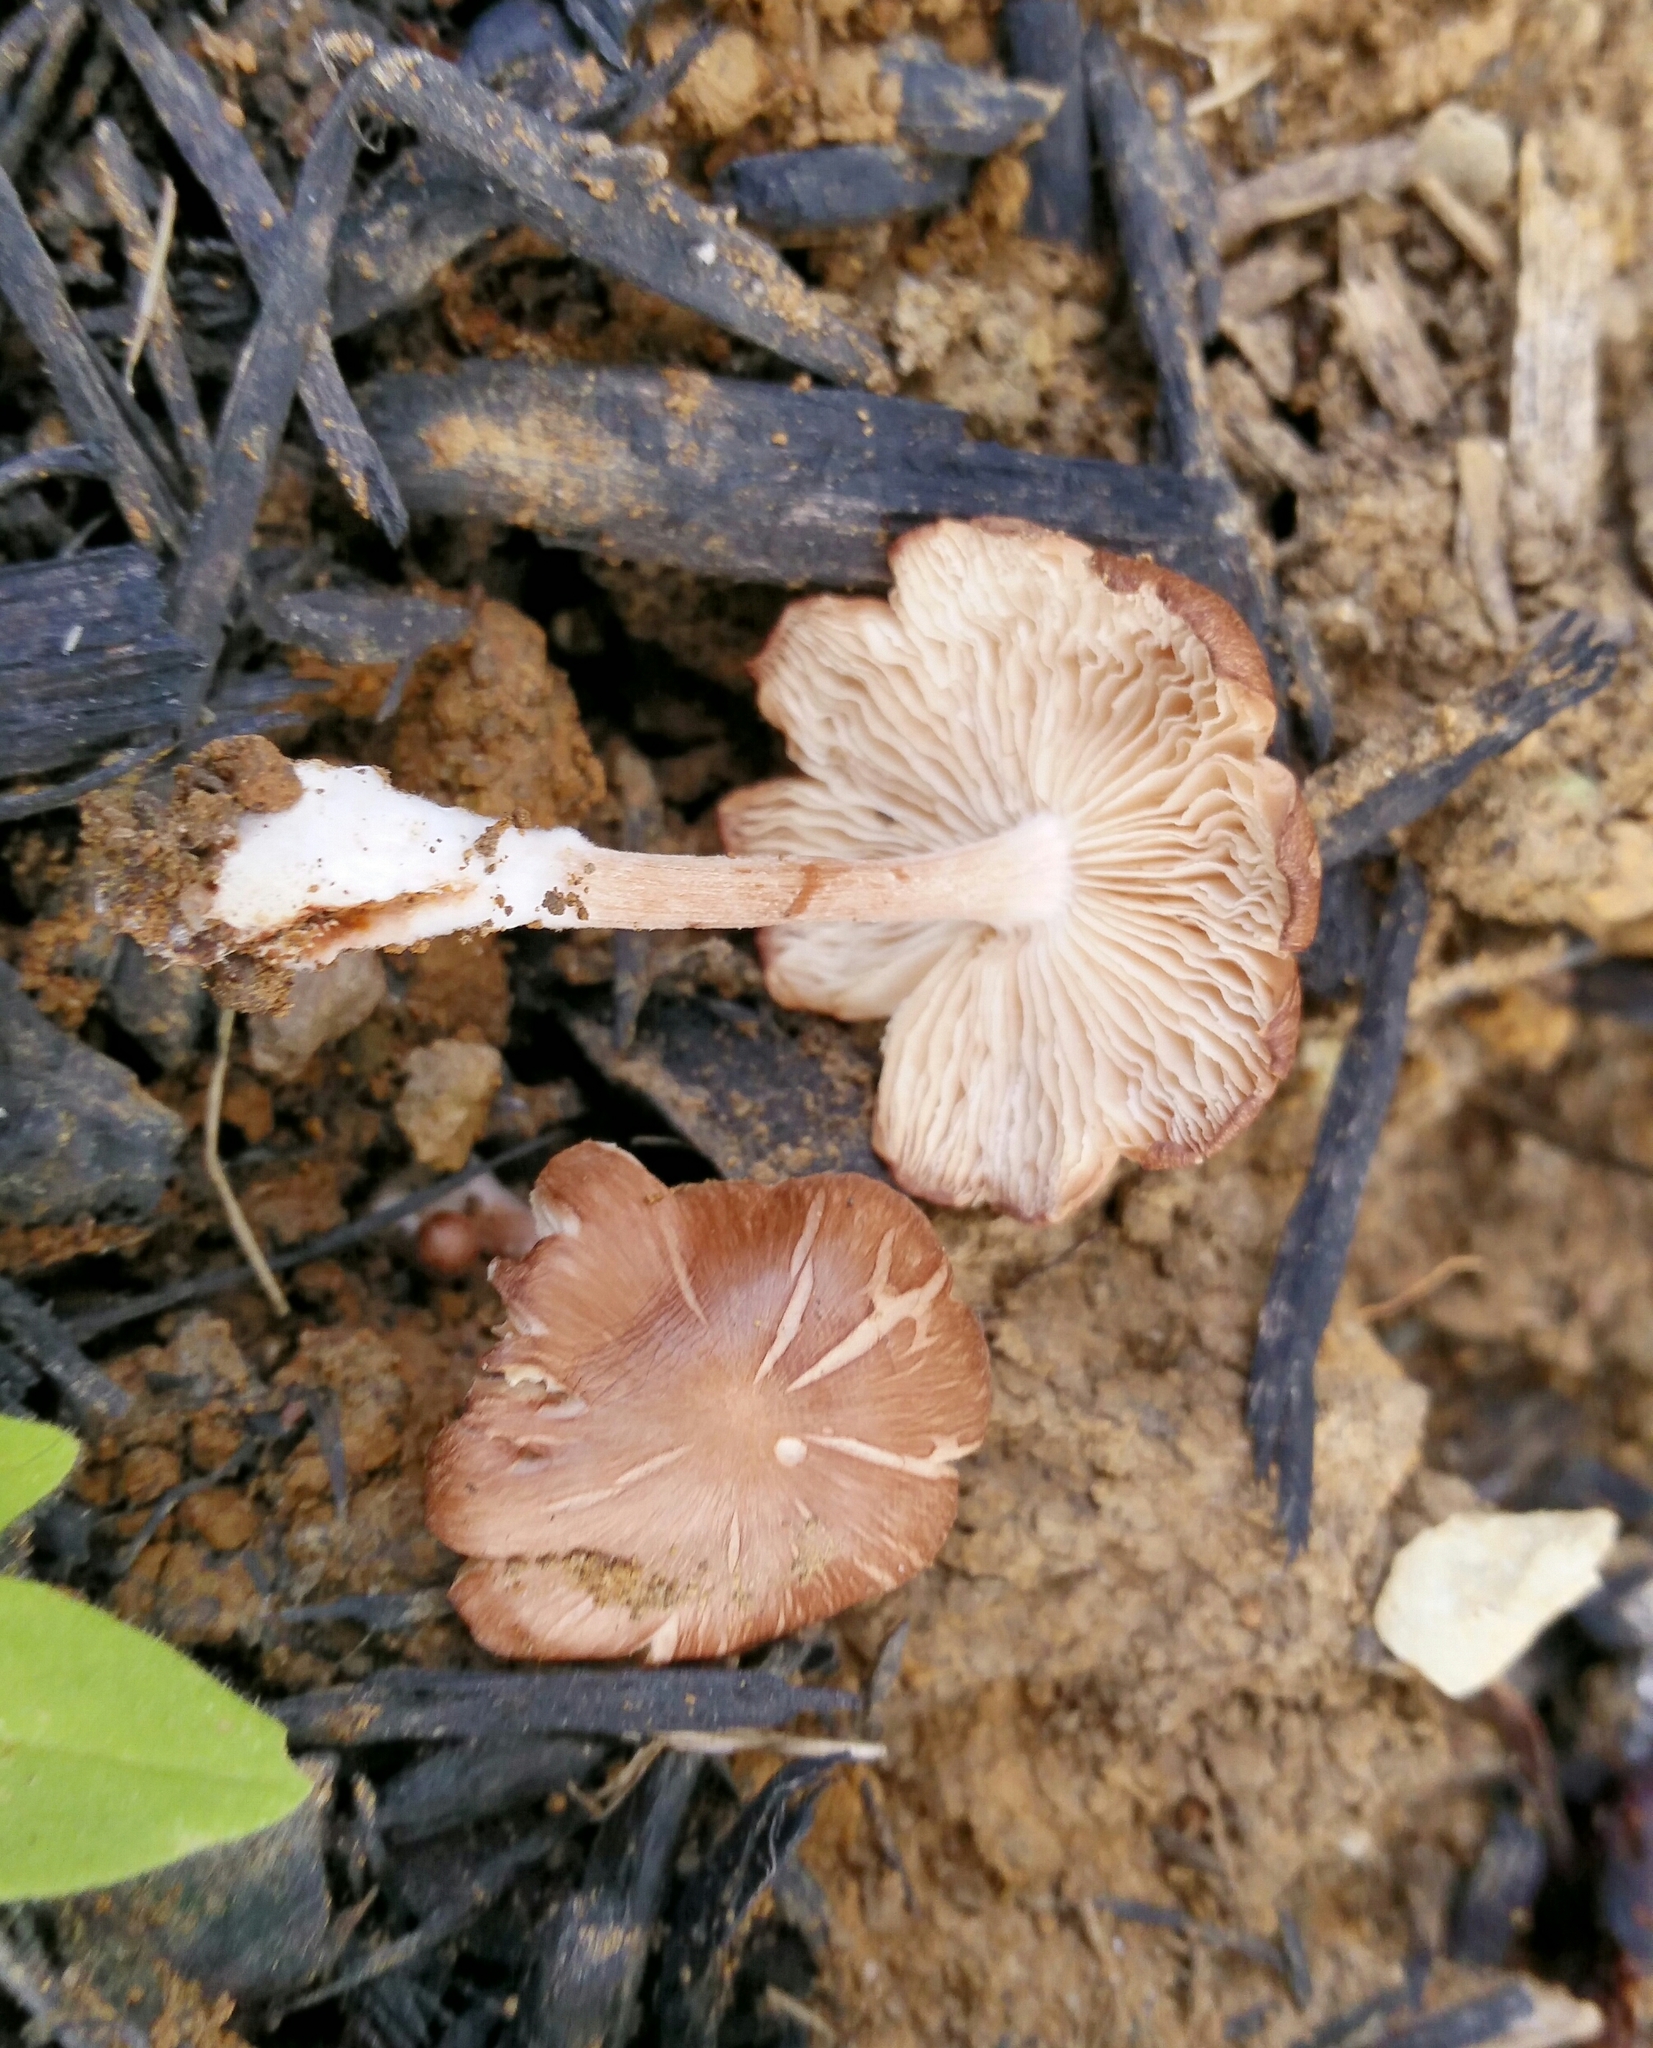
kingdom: Fungi
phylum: Basidiomycota
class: Agaricomycetes
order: Agaricales
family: Omphalotaceae
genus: Collybiopsis
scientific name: Collybiopsis luxurians
